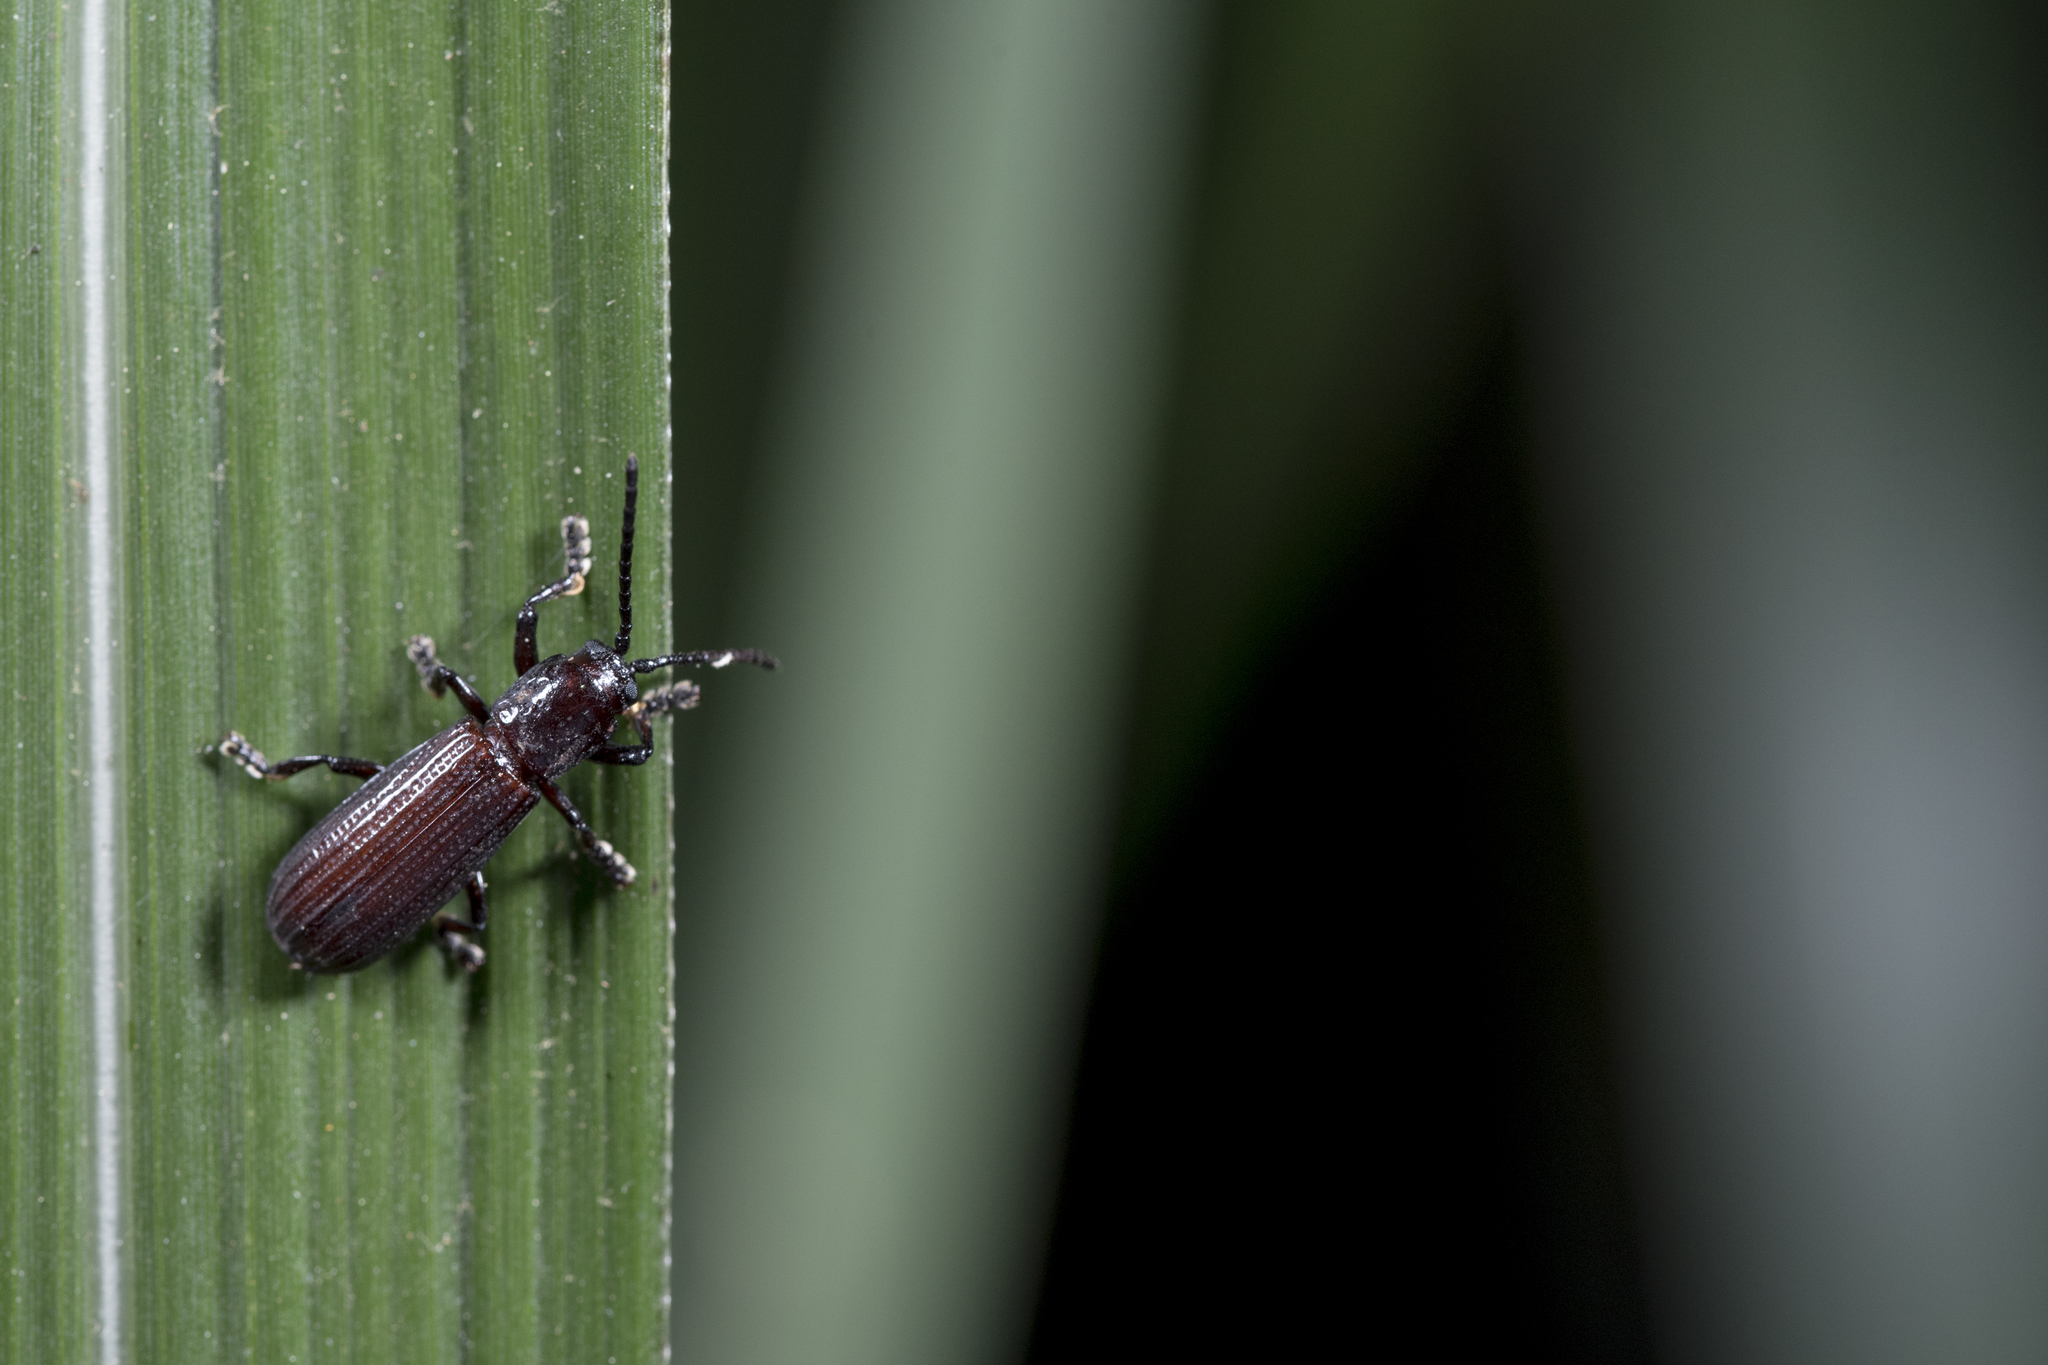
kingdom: Animalia
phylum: Arthropoda
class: Insecta
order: Coleoptera
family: Chrysomelidae
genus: Lasiochila
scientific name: Lasiochila bicolor
